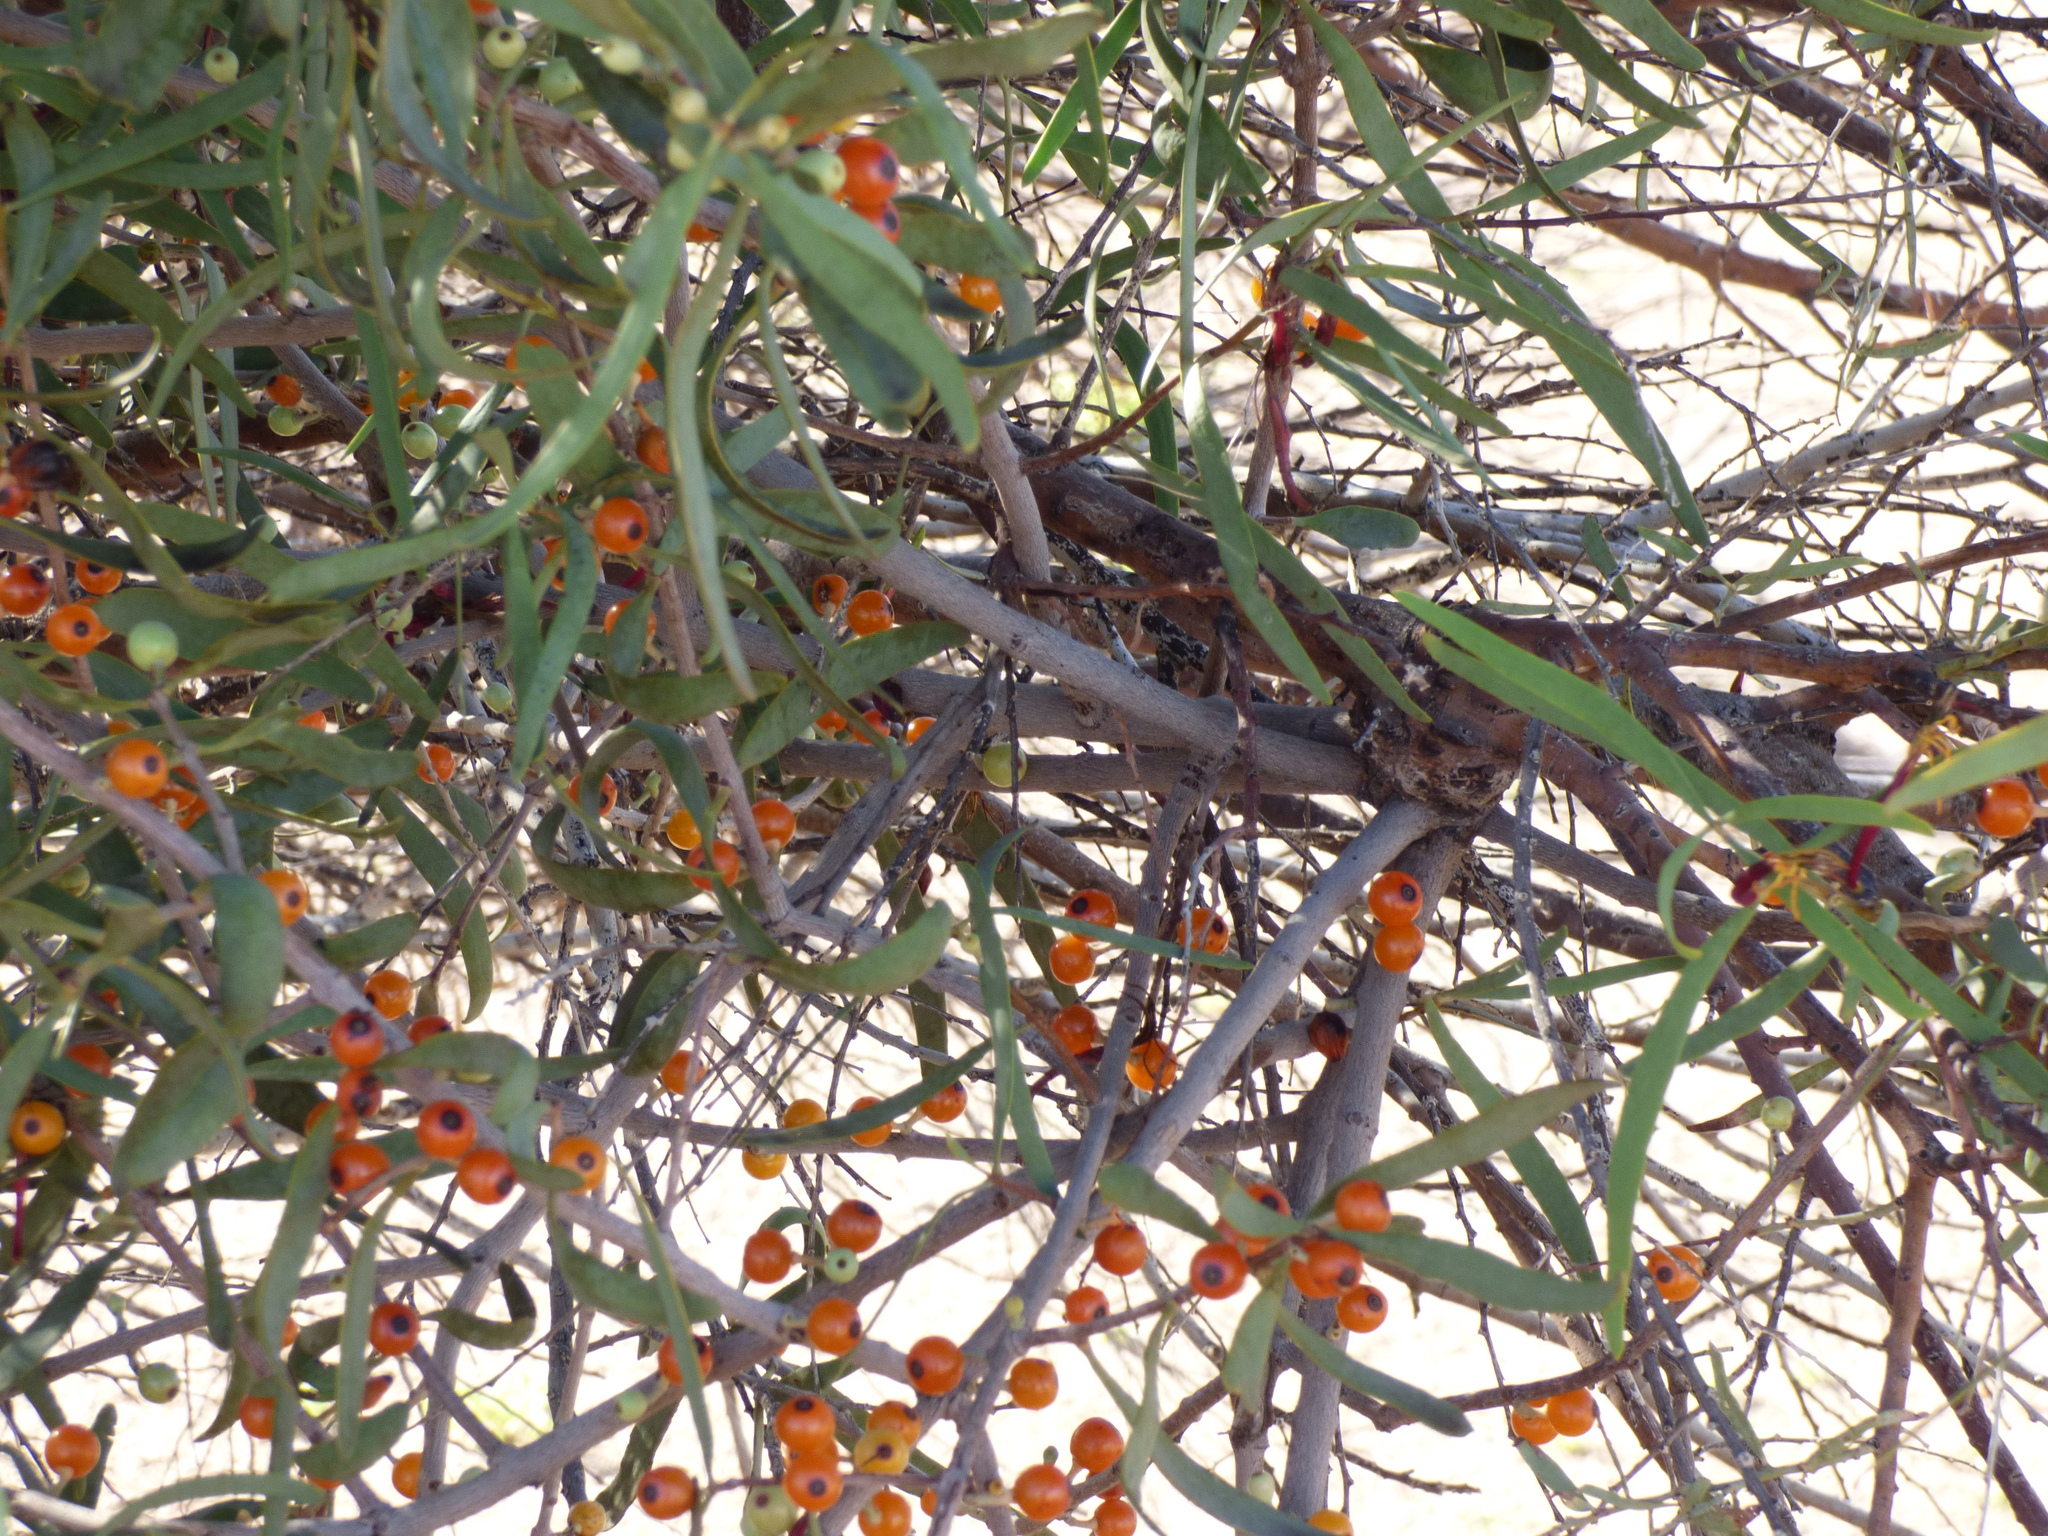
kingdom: Plantae
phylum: Tracheophyta
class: Magnoliopsida
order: Santalales
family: Loranthaceae
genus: Lysiana
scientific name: Lysiana exocarpi
